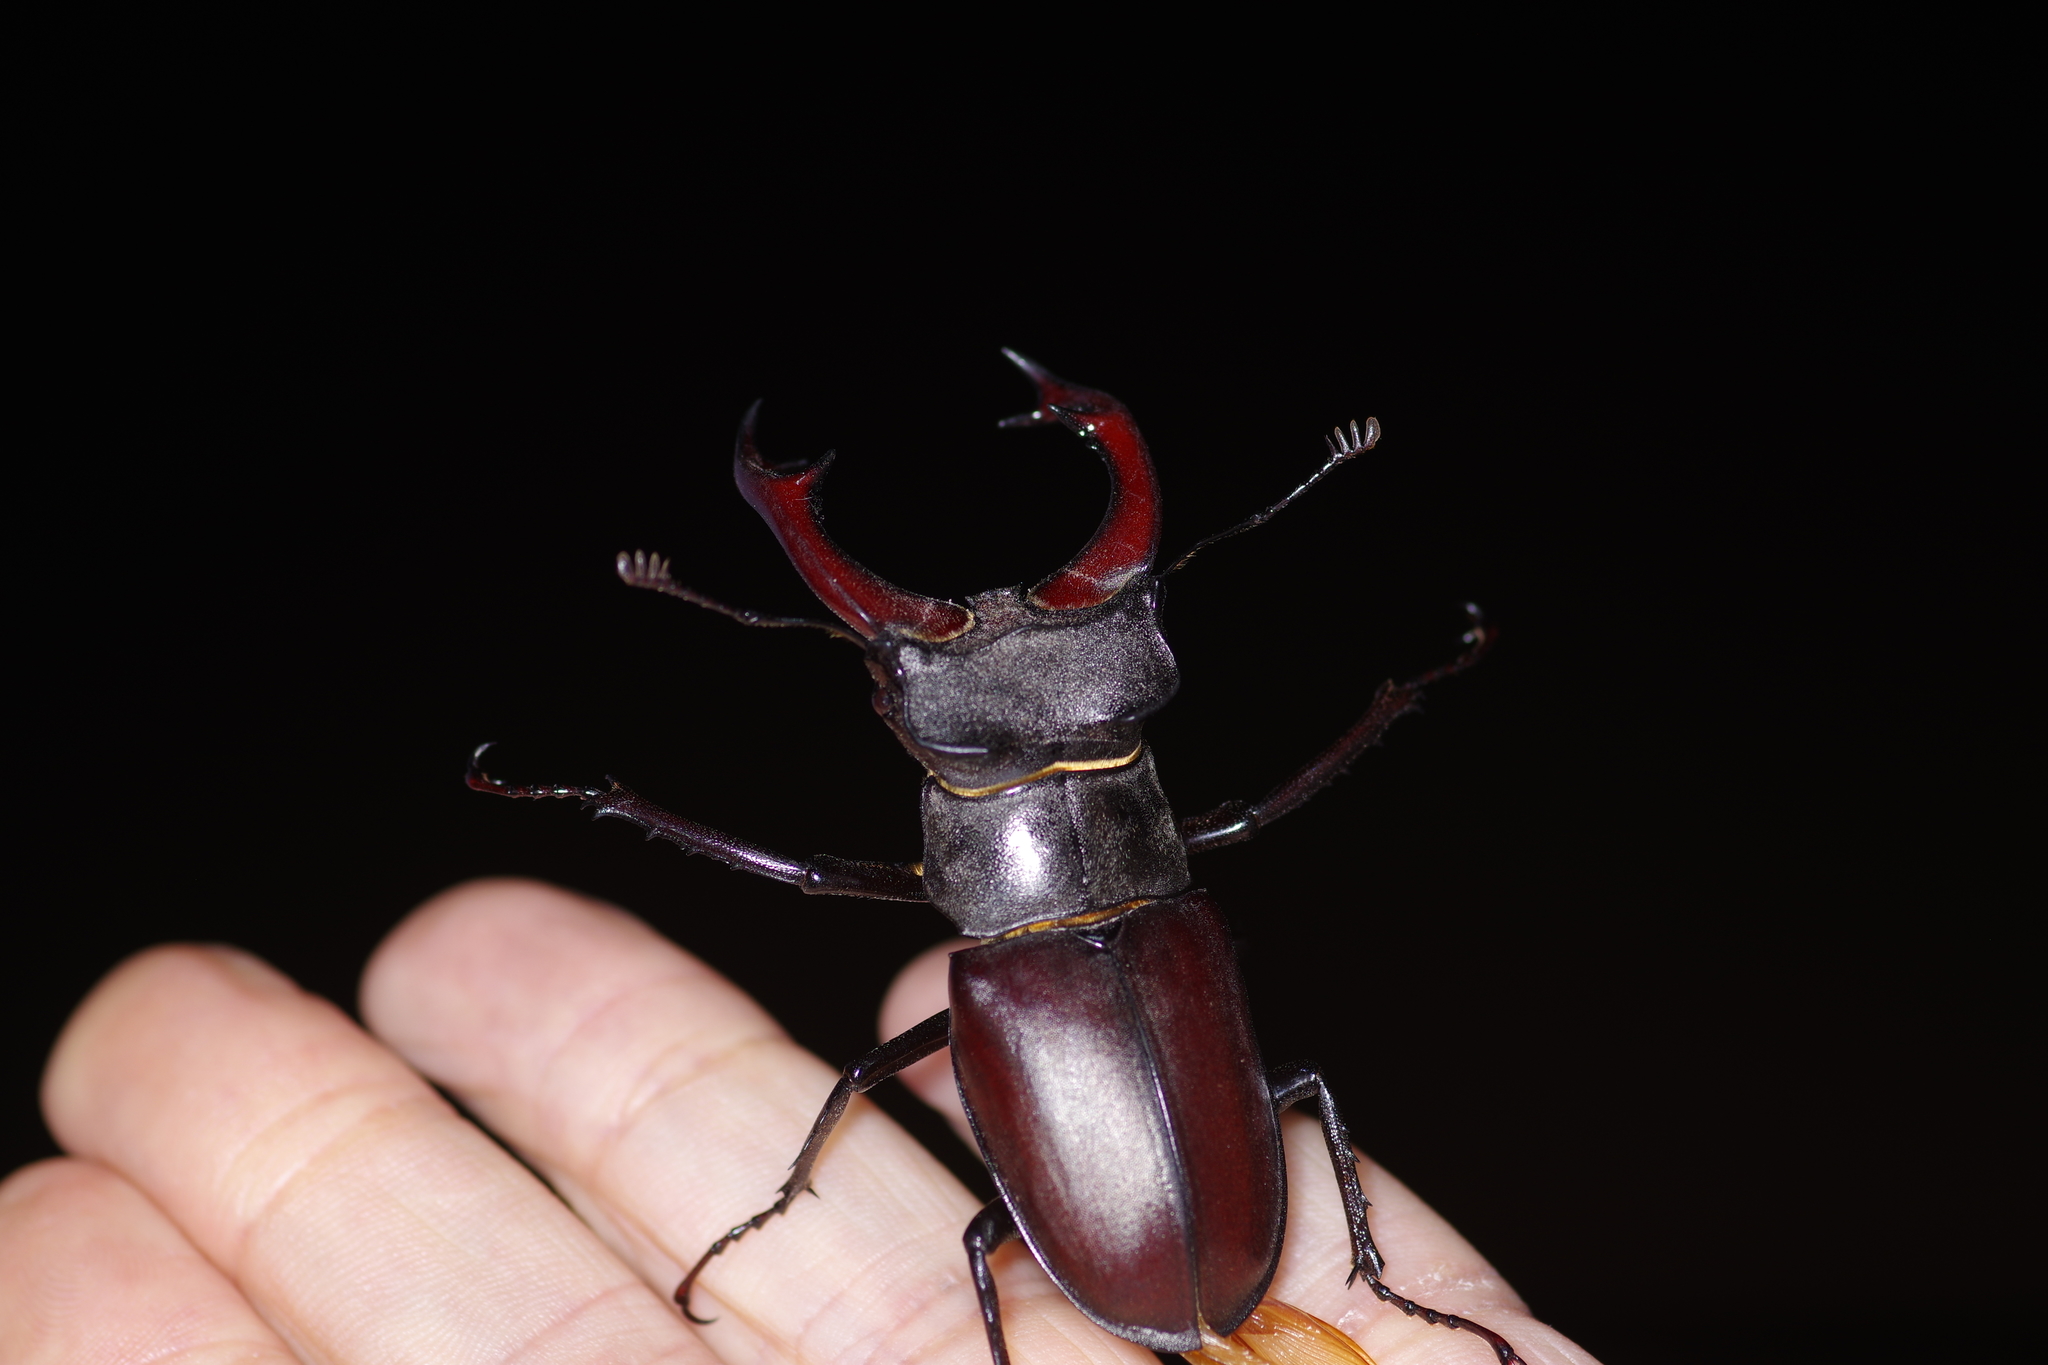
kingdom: Animalia
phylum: Arthropoda
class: Insecta
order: Coleoptera
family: Lucanidae
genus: Lucanus
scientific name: Lucanus cervus
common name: Stag beetle
